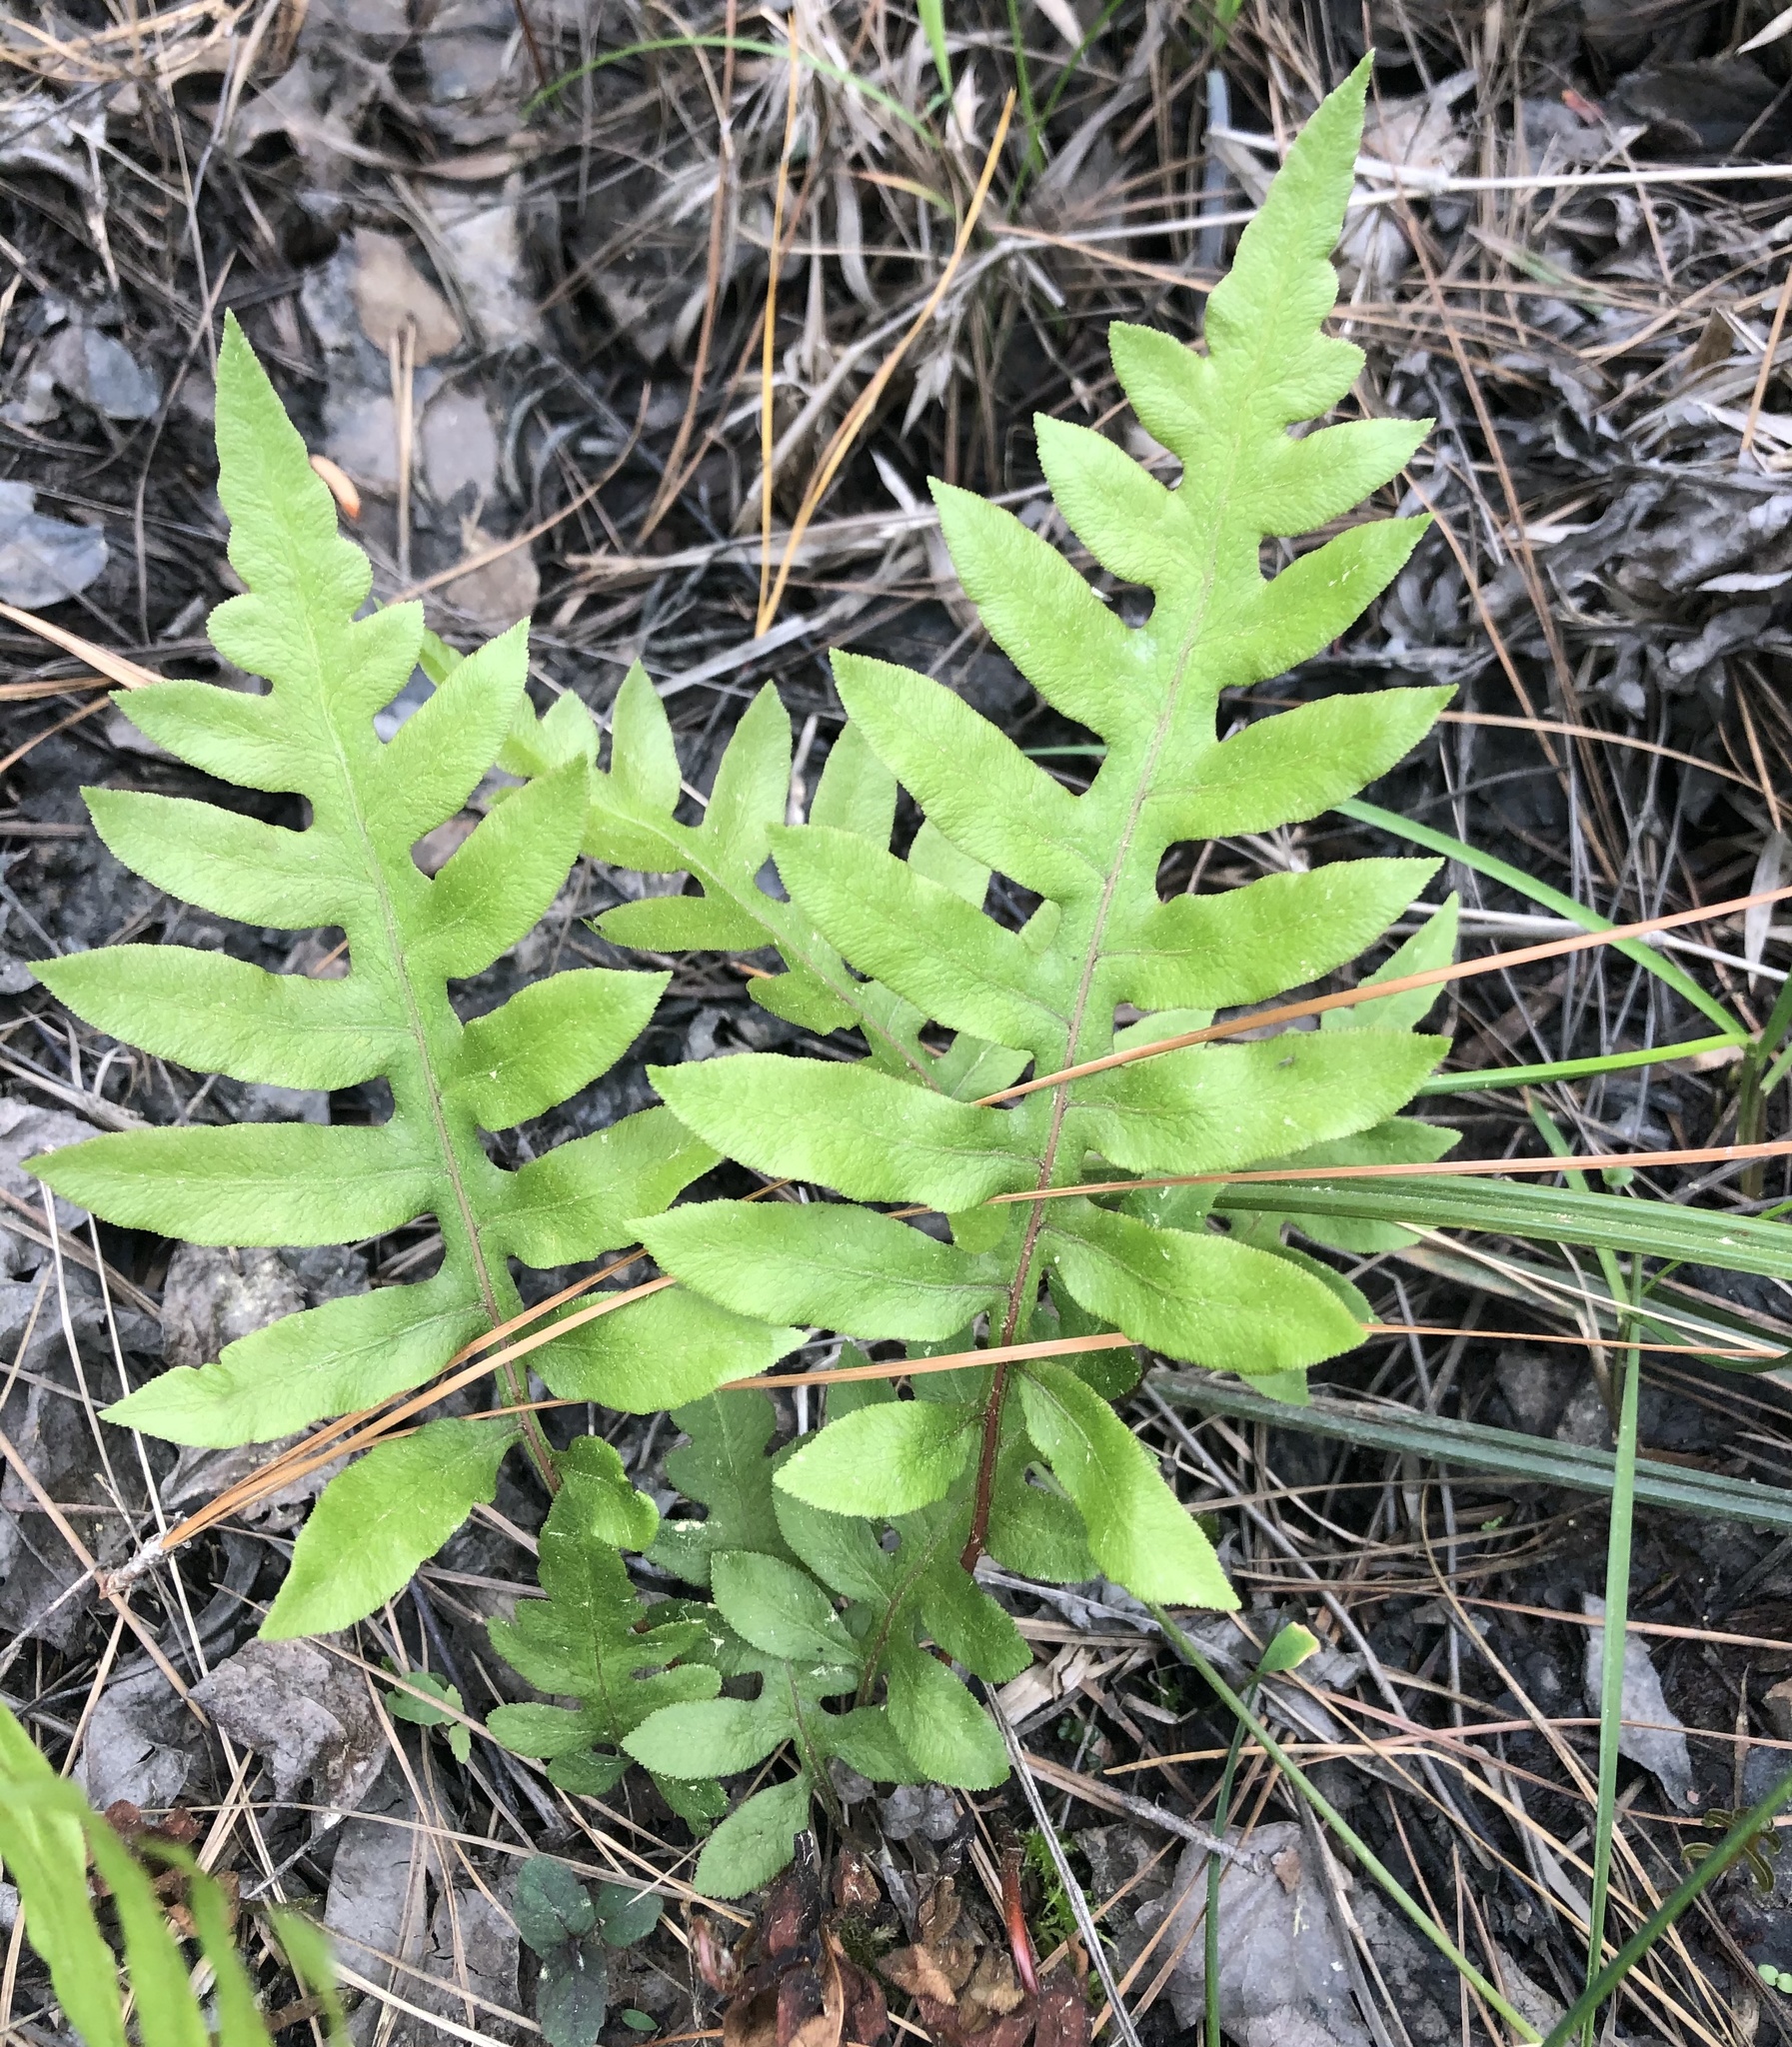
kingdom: Plantae
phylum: Tracheophyta
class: Polypodiopsida
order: Polypodiales
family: Blechnaceae
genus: Lorinseria
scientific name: Lorinseria areolata
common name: Dwarf chain fern
